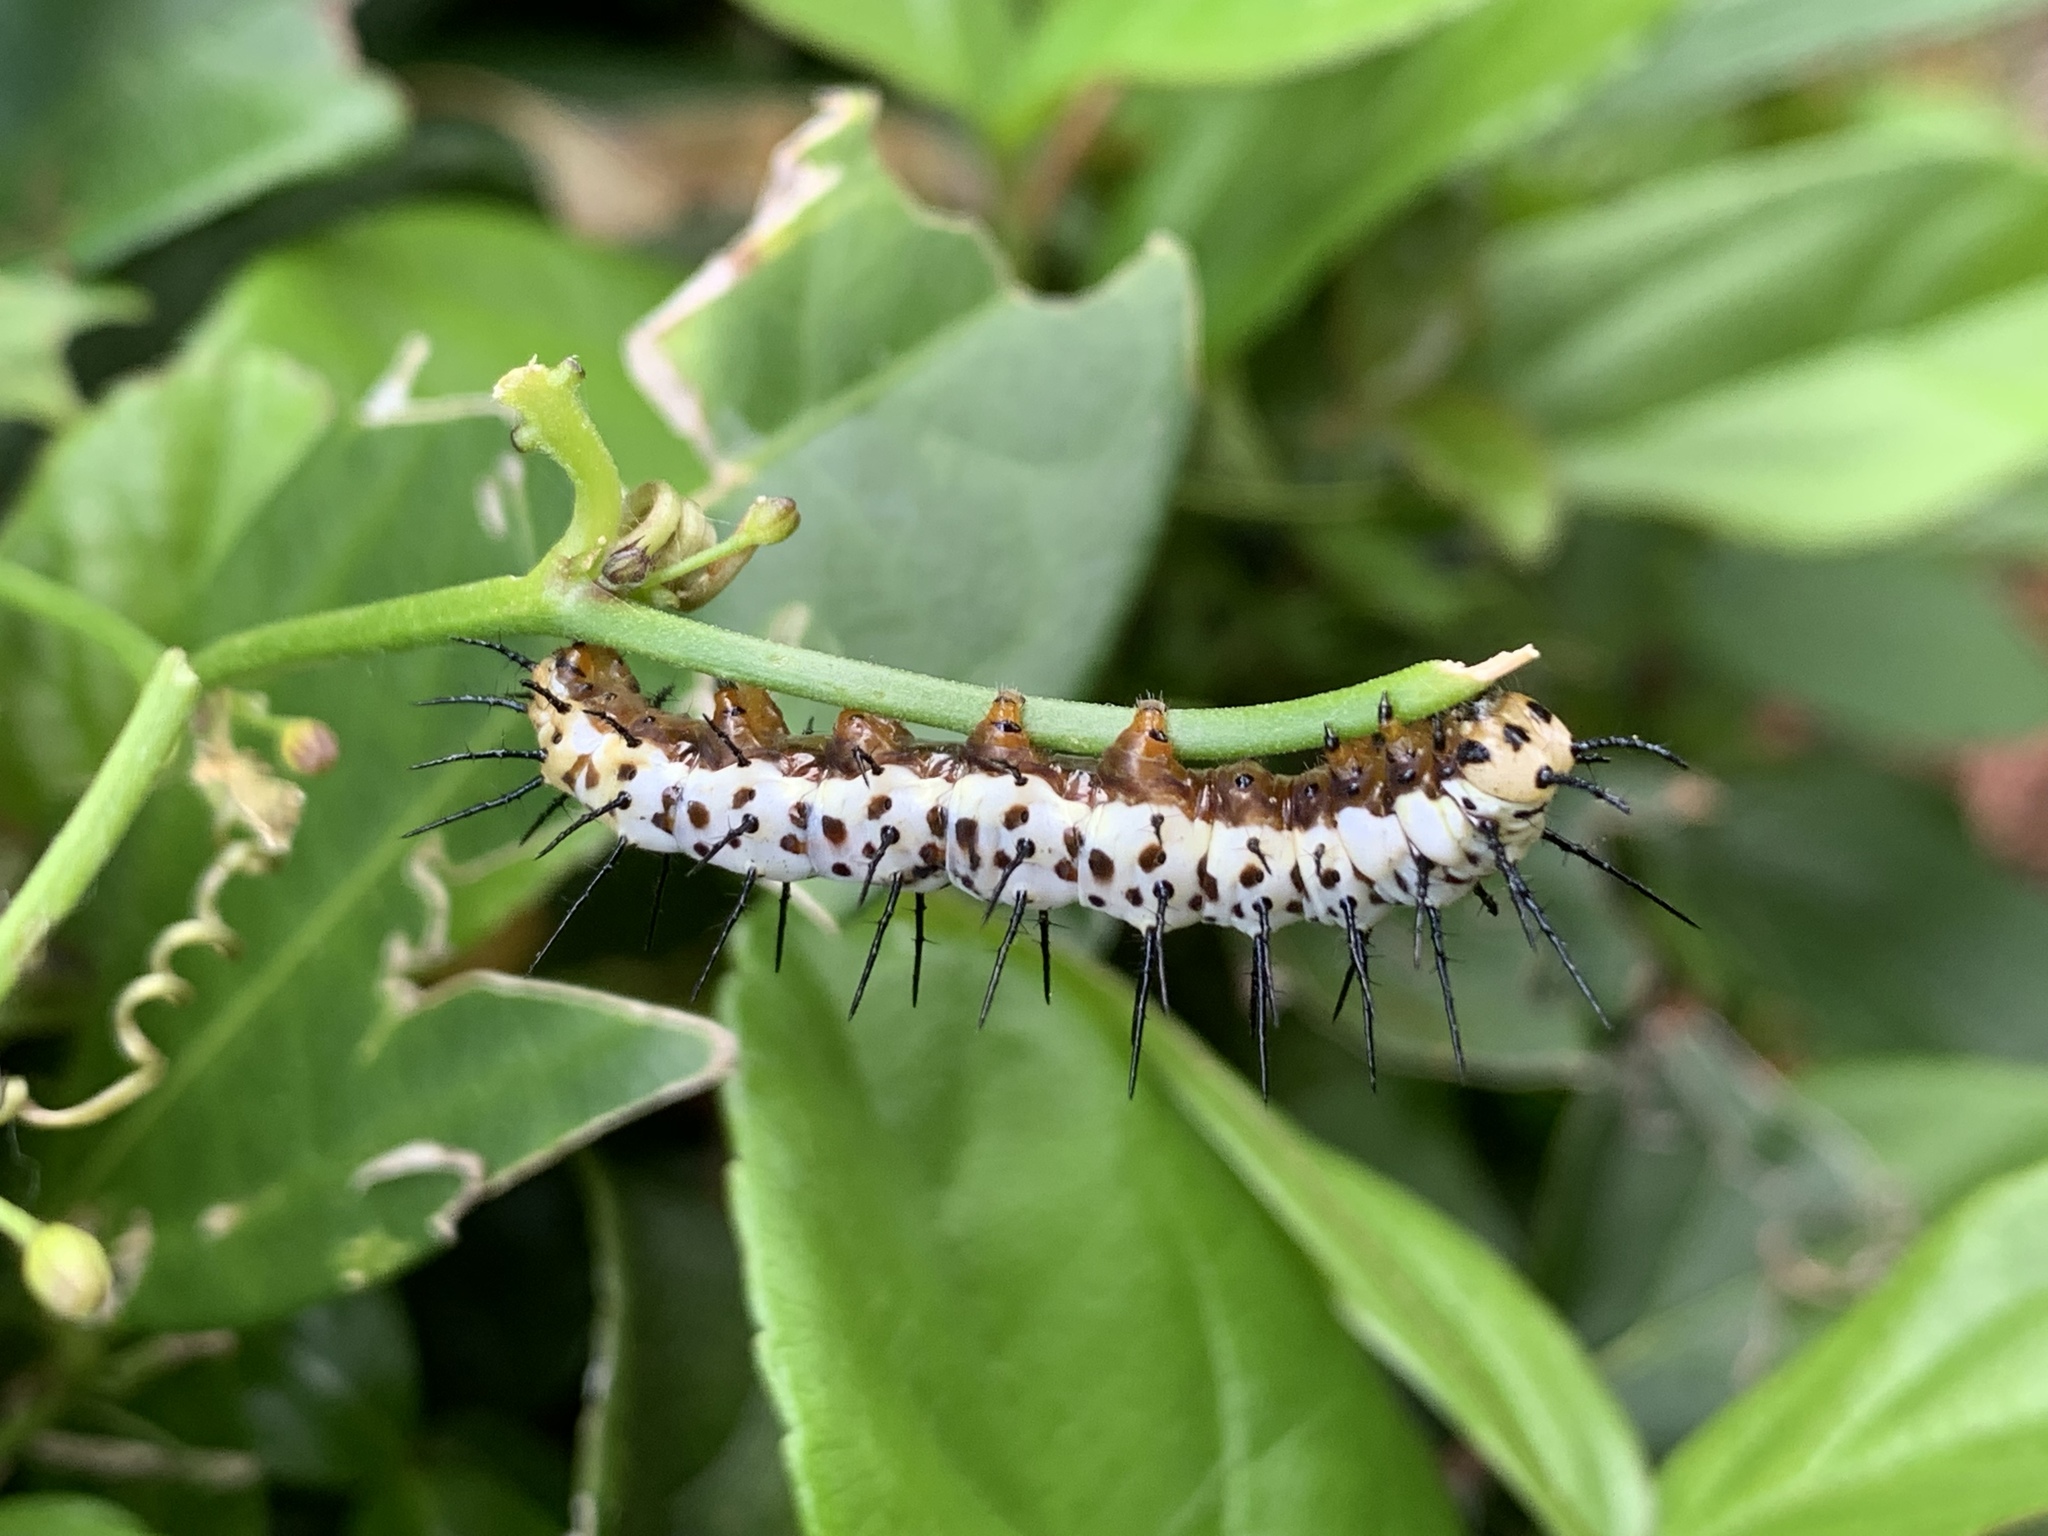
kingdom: Animalia
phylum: Arthropoda
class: Insecta
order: Lepidoptera
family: Nymphalidae
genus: Heliconius
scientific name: Heliconius charithonia
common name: Zebra long wing
